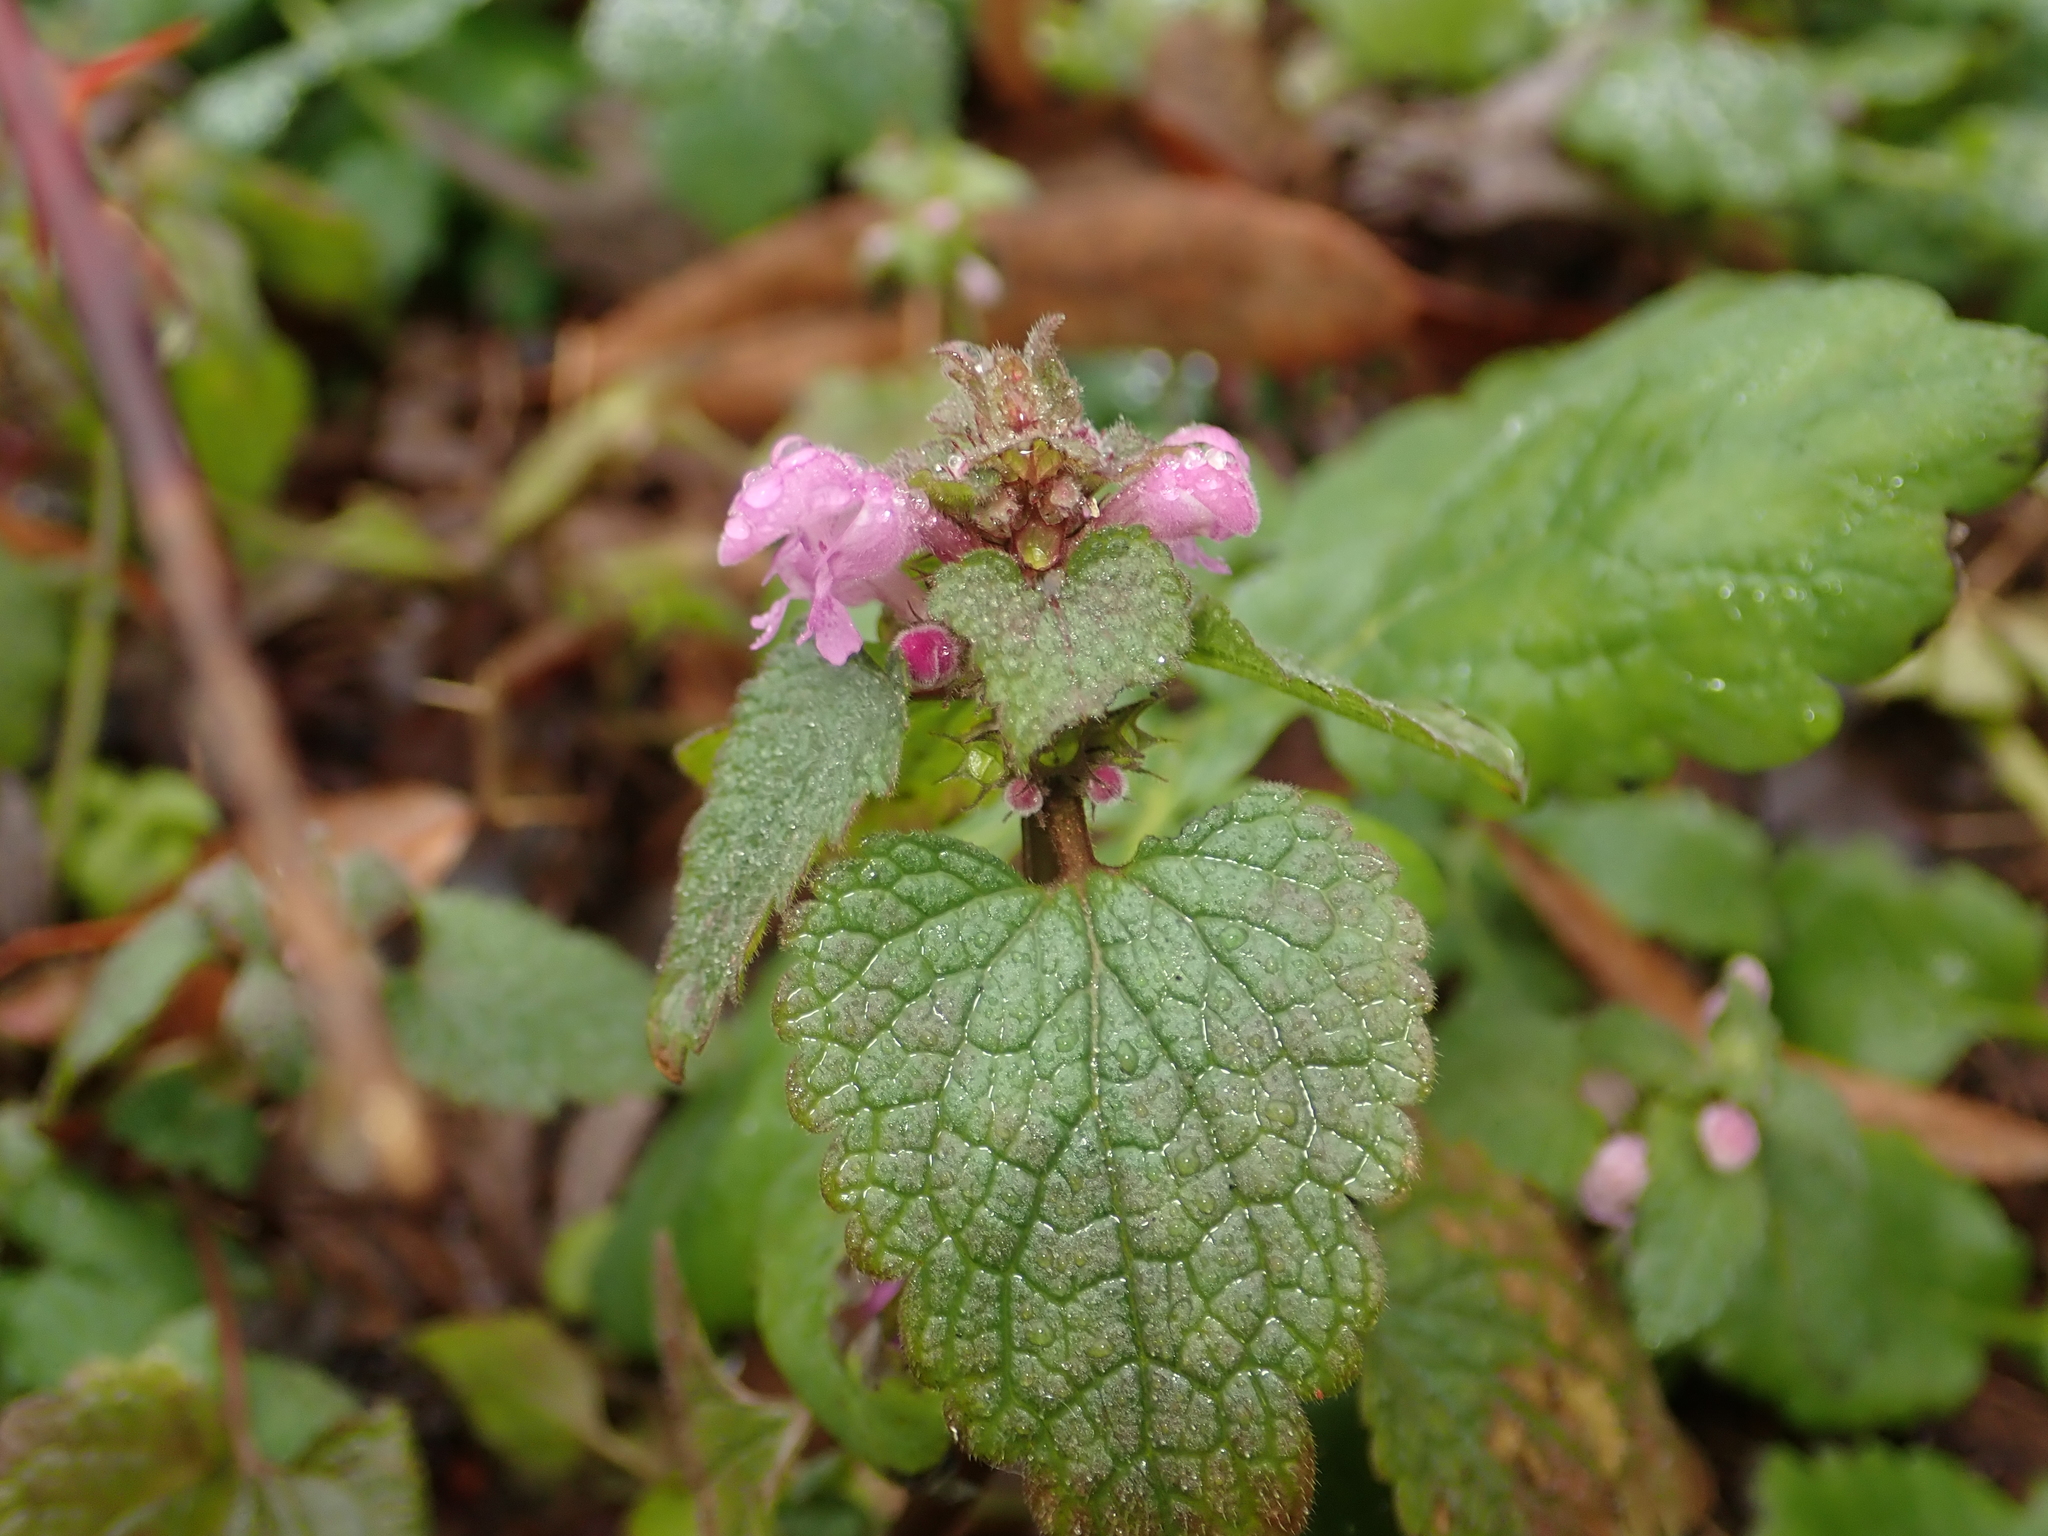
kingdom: Plantae
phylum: Tracheophyta
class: Magnoliopsida
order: Lamiales
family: Lamiaceae
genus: Lamium
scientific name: Lamium purpureum
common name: Red dead-nettle
